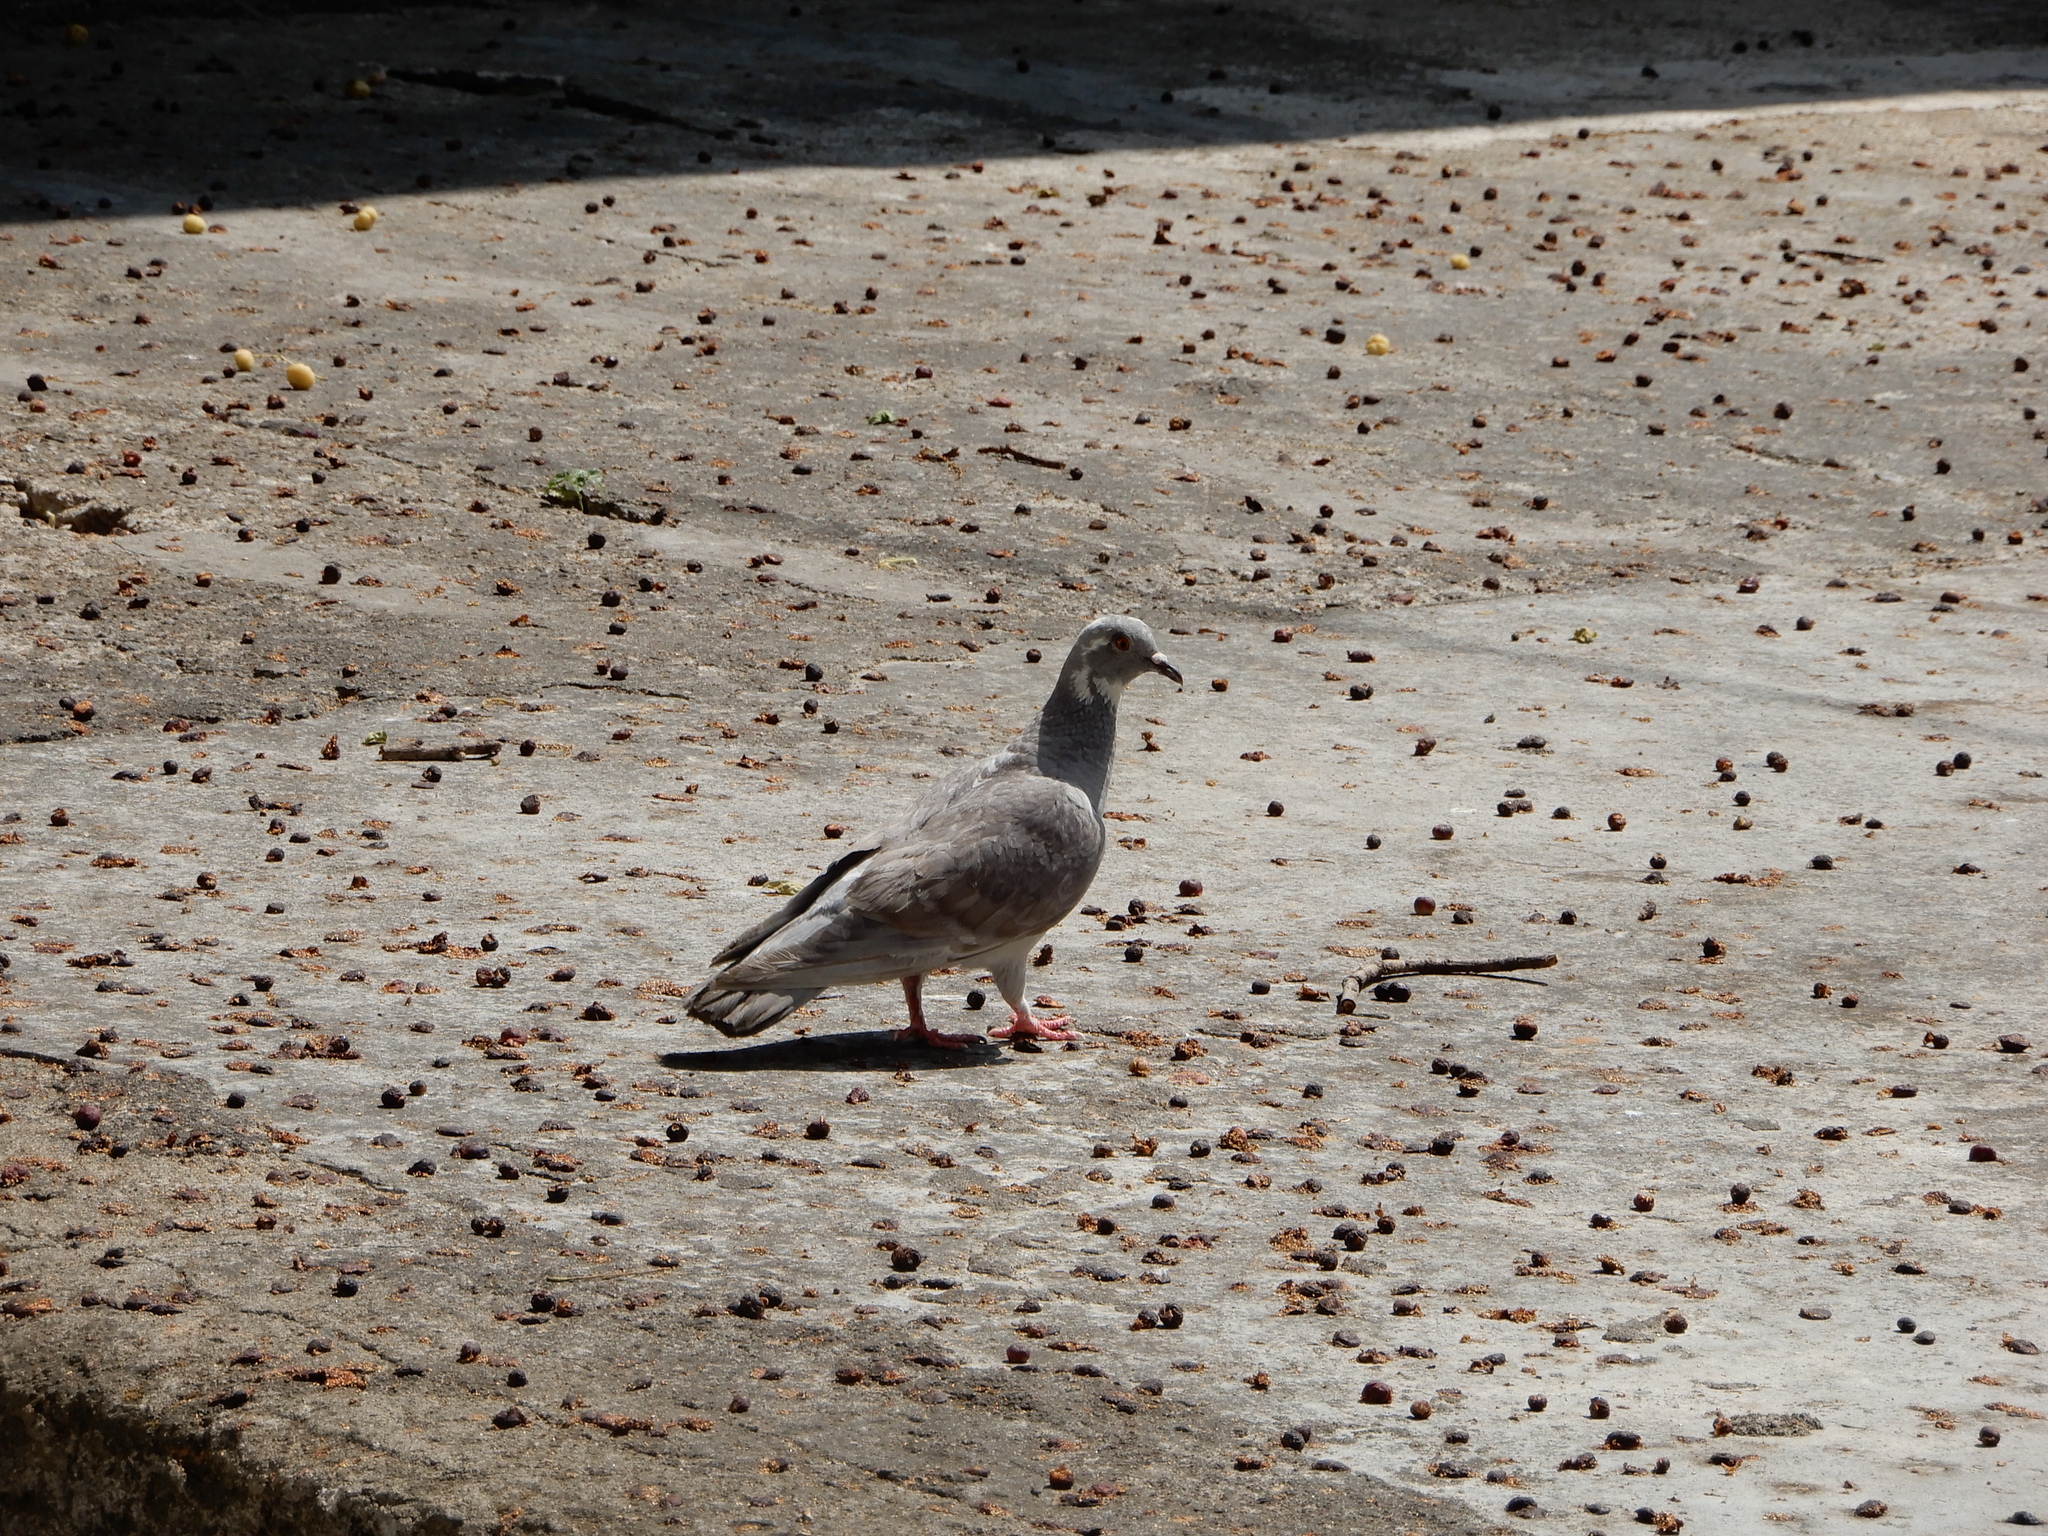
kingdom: Animalia
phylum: Chordata
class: Aves
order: Columbiformes
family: Columbidae
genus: Columba
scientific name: Columba livia
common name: Rock pigeon
